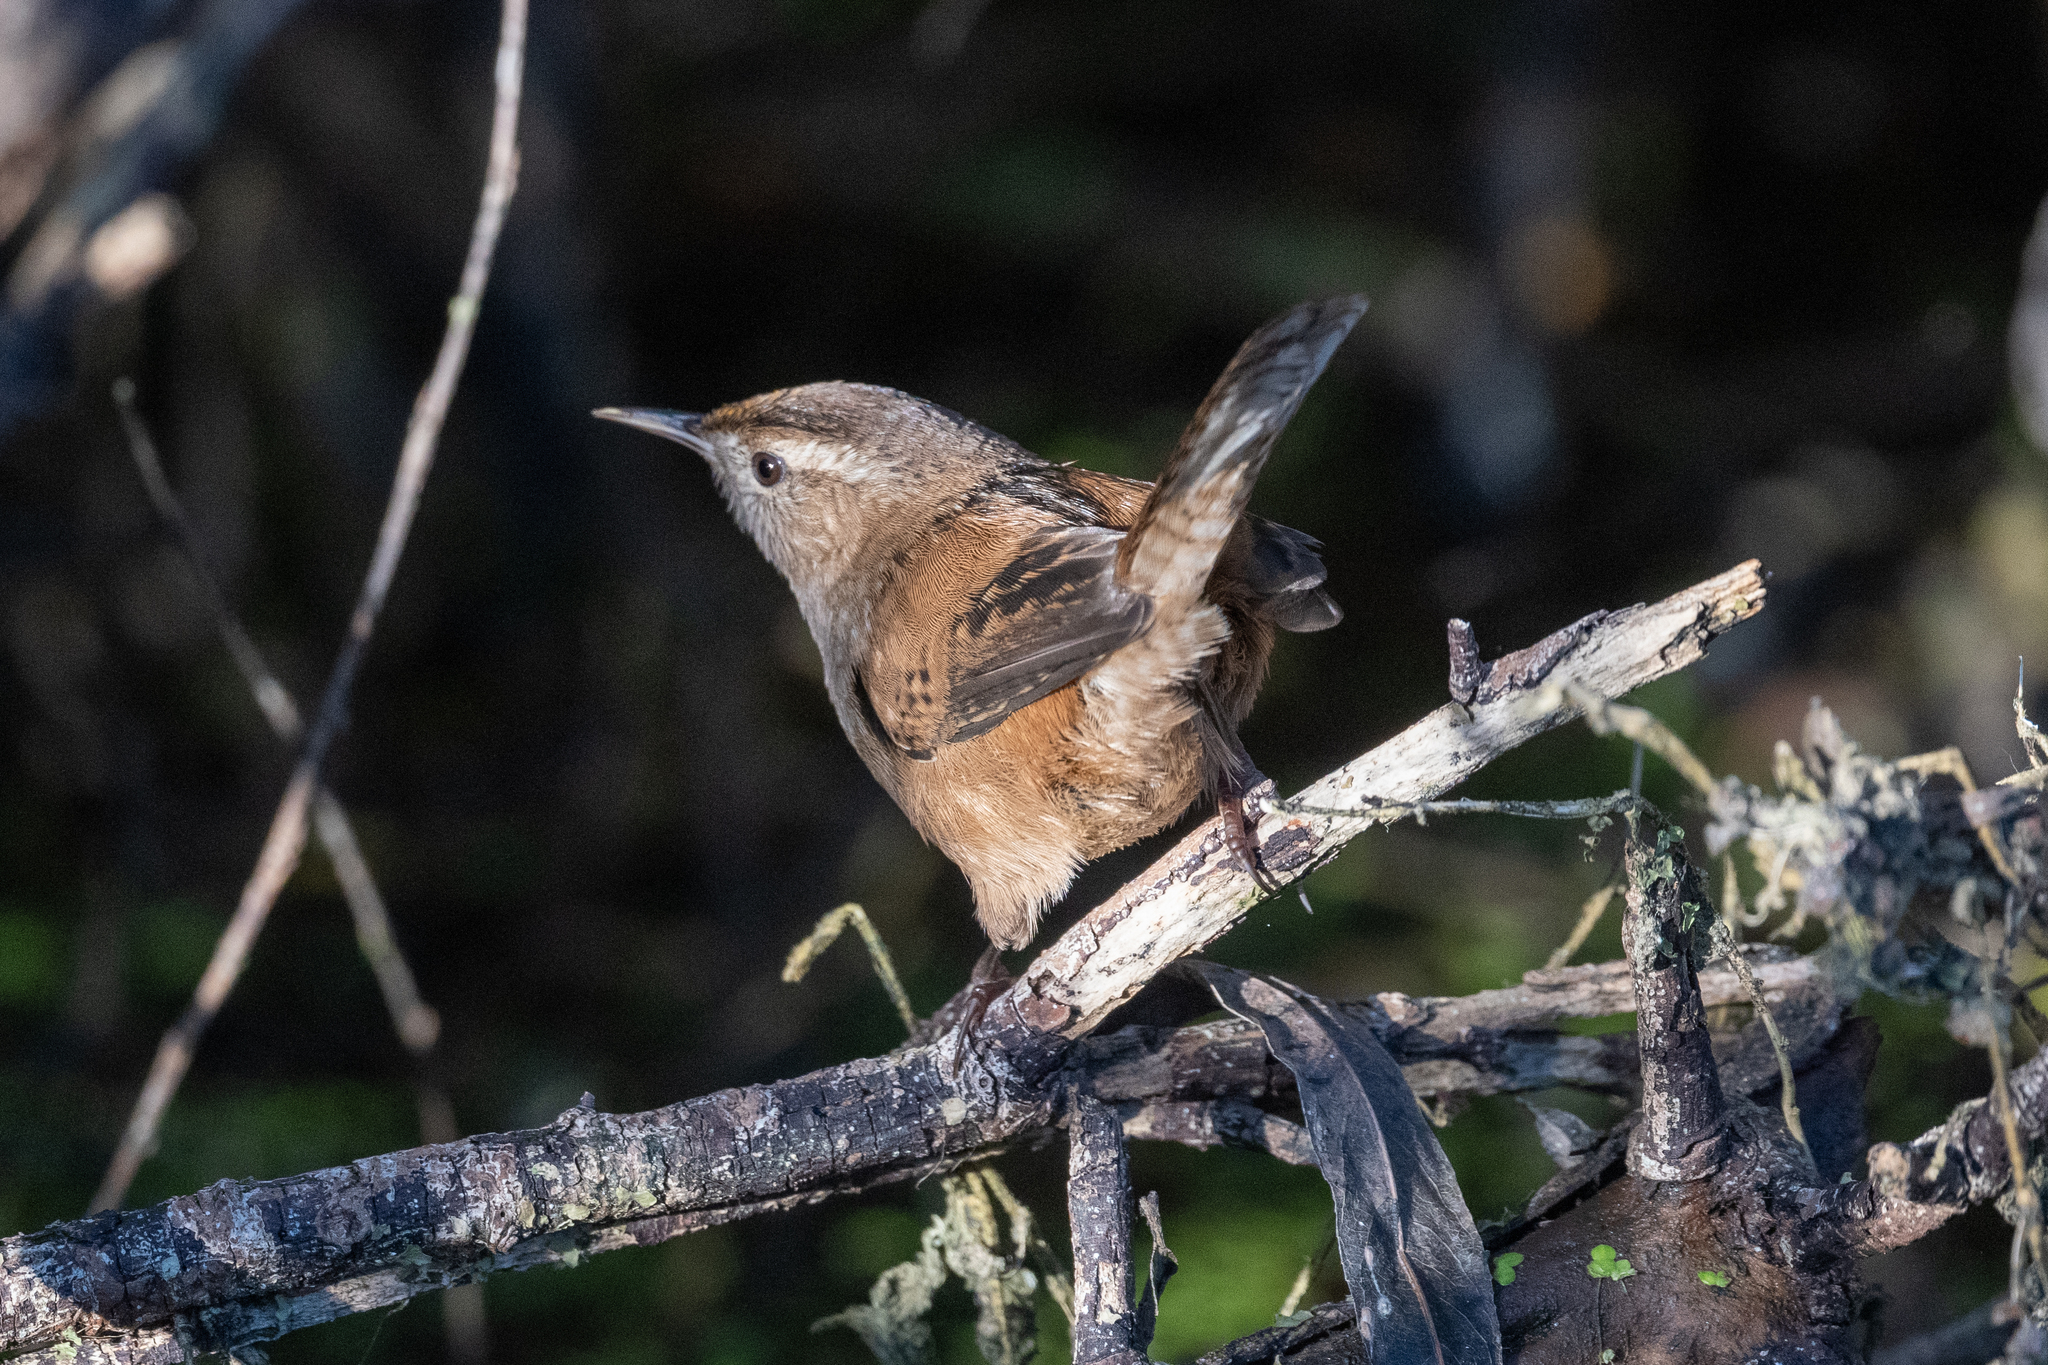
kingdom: Animalia
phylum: Chordata
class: Aves
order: Passeriformes
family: Troglodytidae
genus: Cistothorus
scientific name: Cistothorus palustris
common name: Marsh wren
